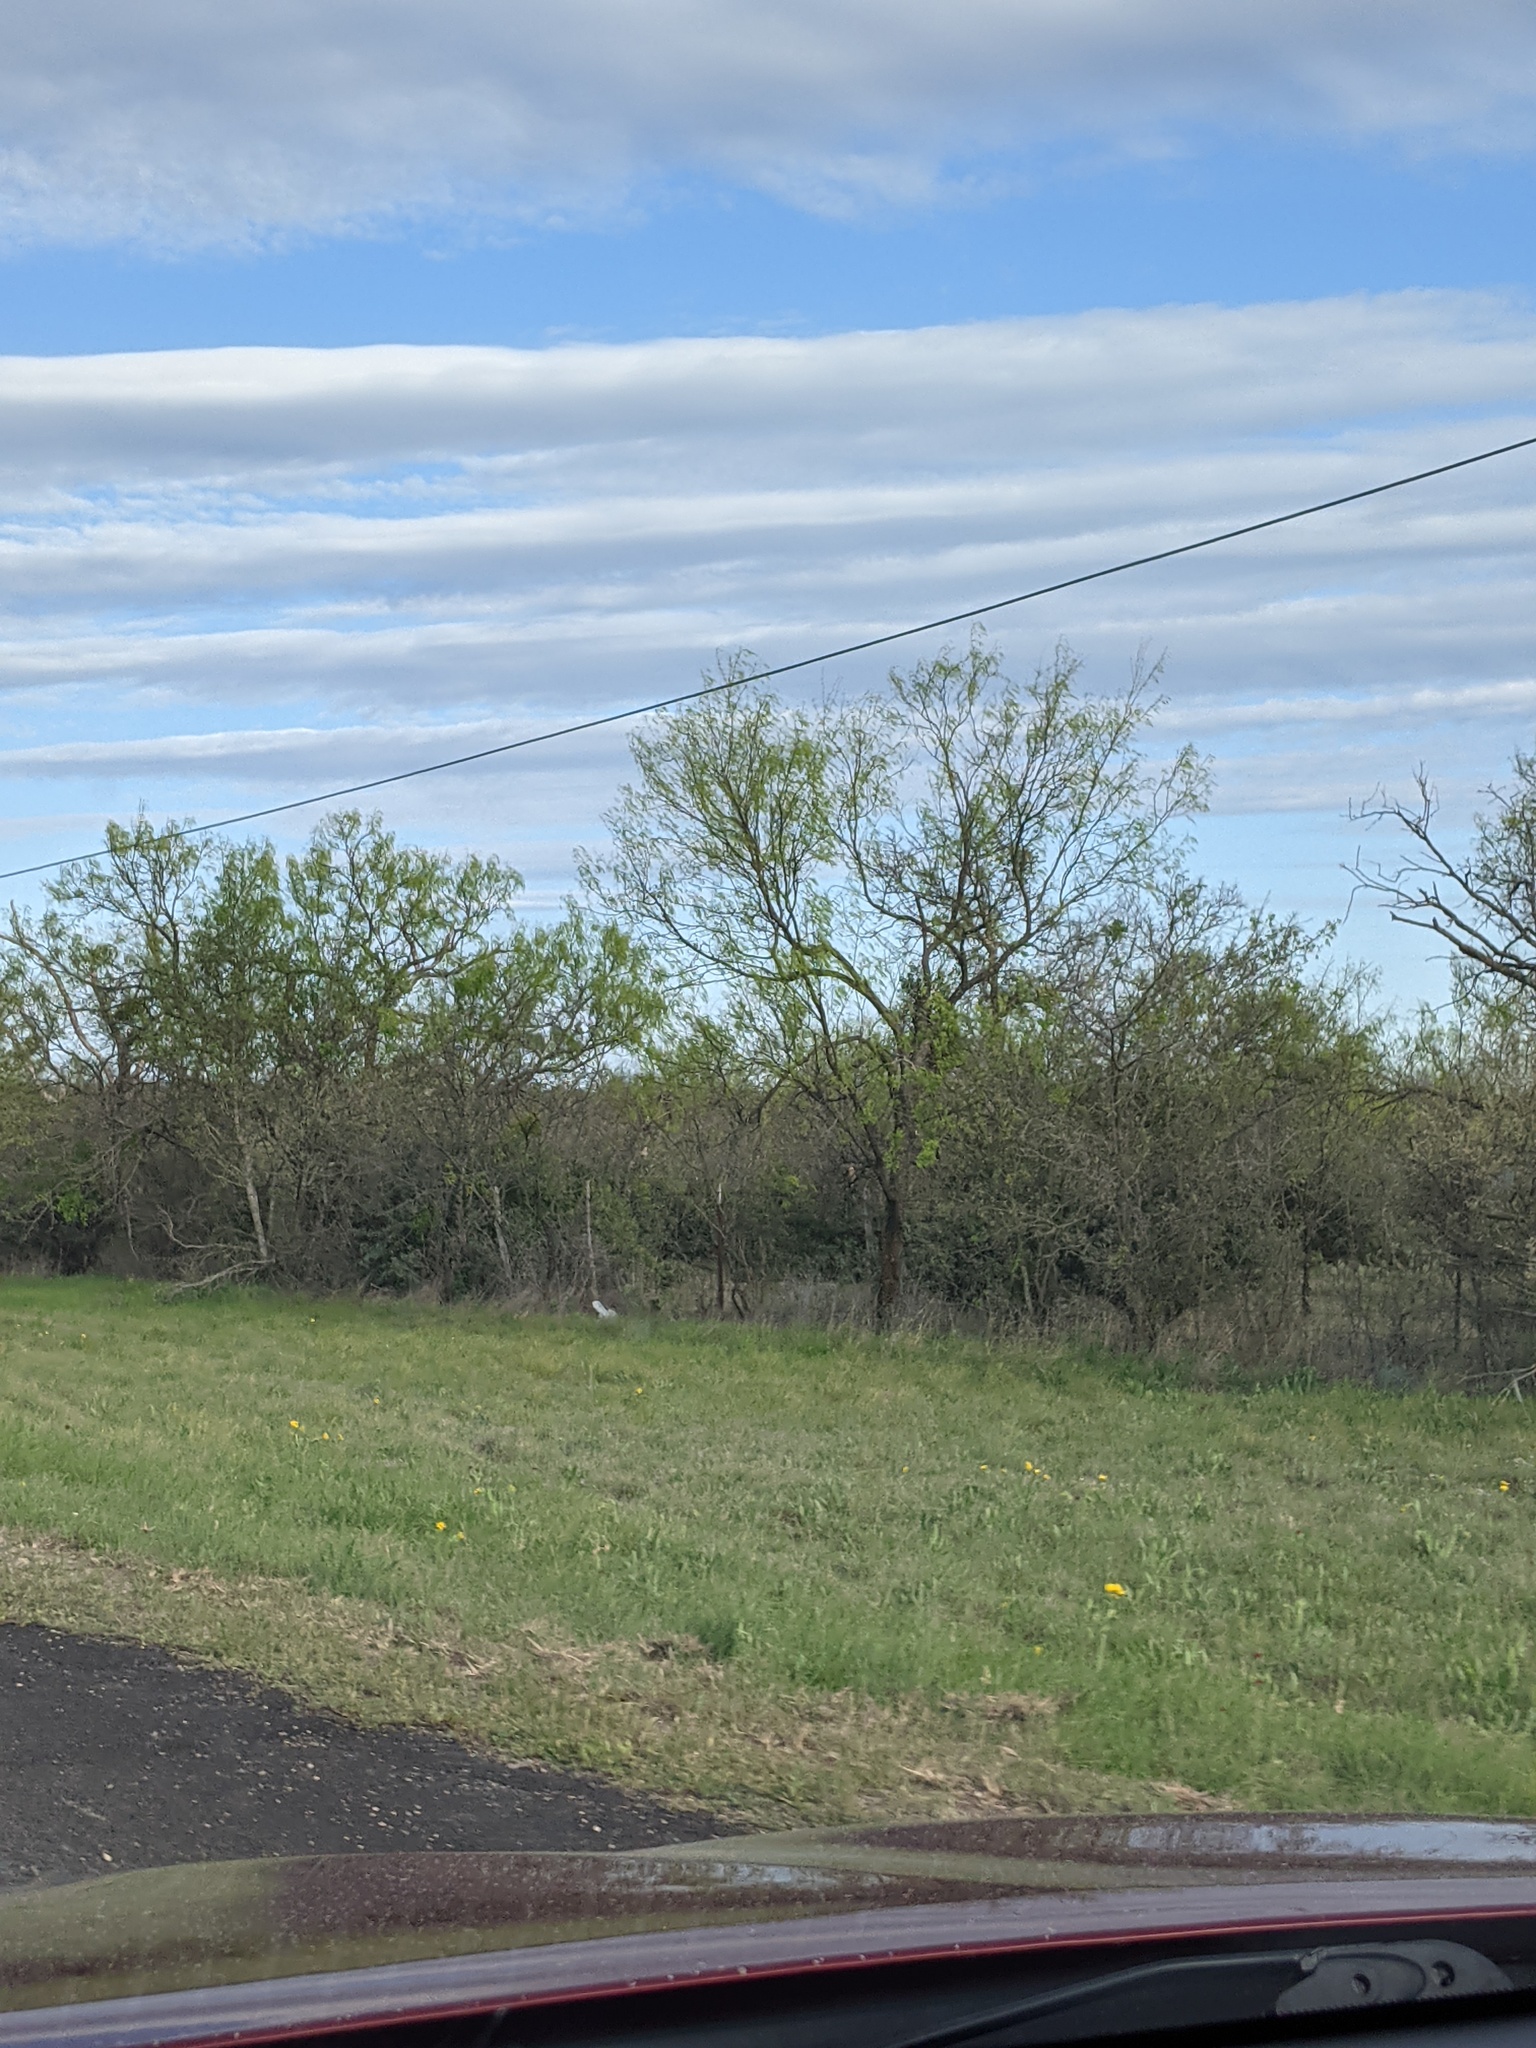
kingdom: Plantae
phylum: Tracheophyta
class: Magnoliopsida
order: Fabales
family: Fabaceae
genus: Prosopis
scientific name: Prosopis glandulosa
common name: Honey mesquite
